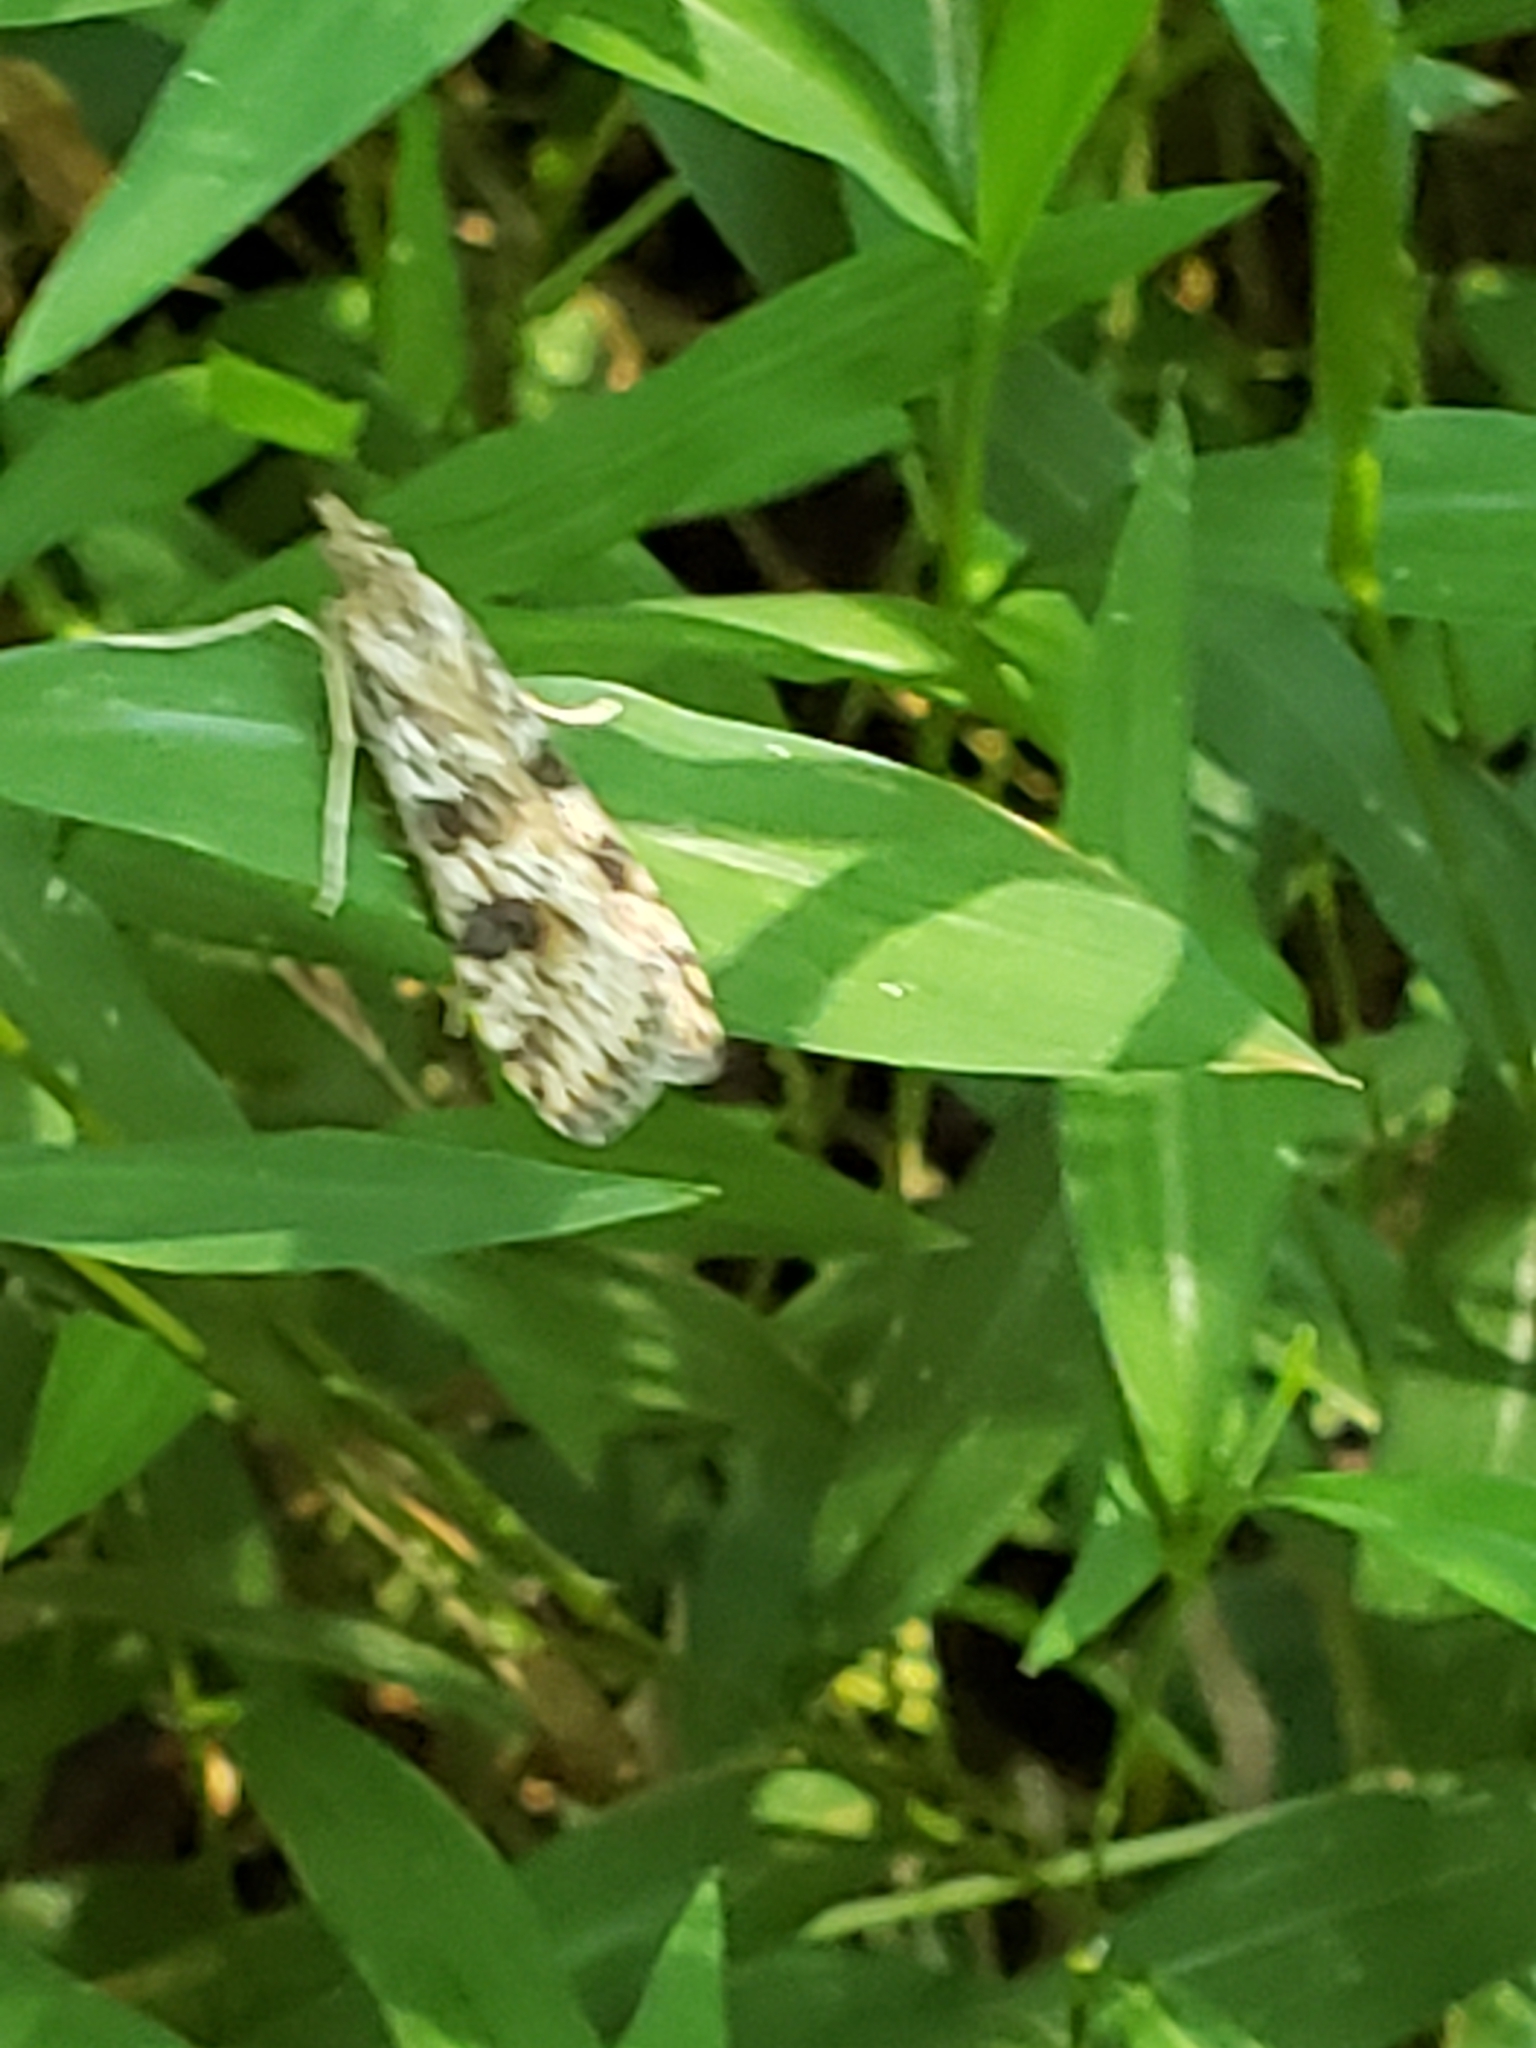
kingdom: Animalia
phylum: Arthropoda
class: Insecta
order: Lepidoptera
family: Crambidae
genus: Nomophila
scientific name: Nomophila nearctica
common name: American rush veneer
